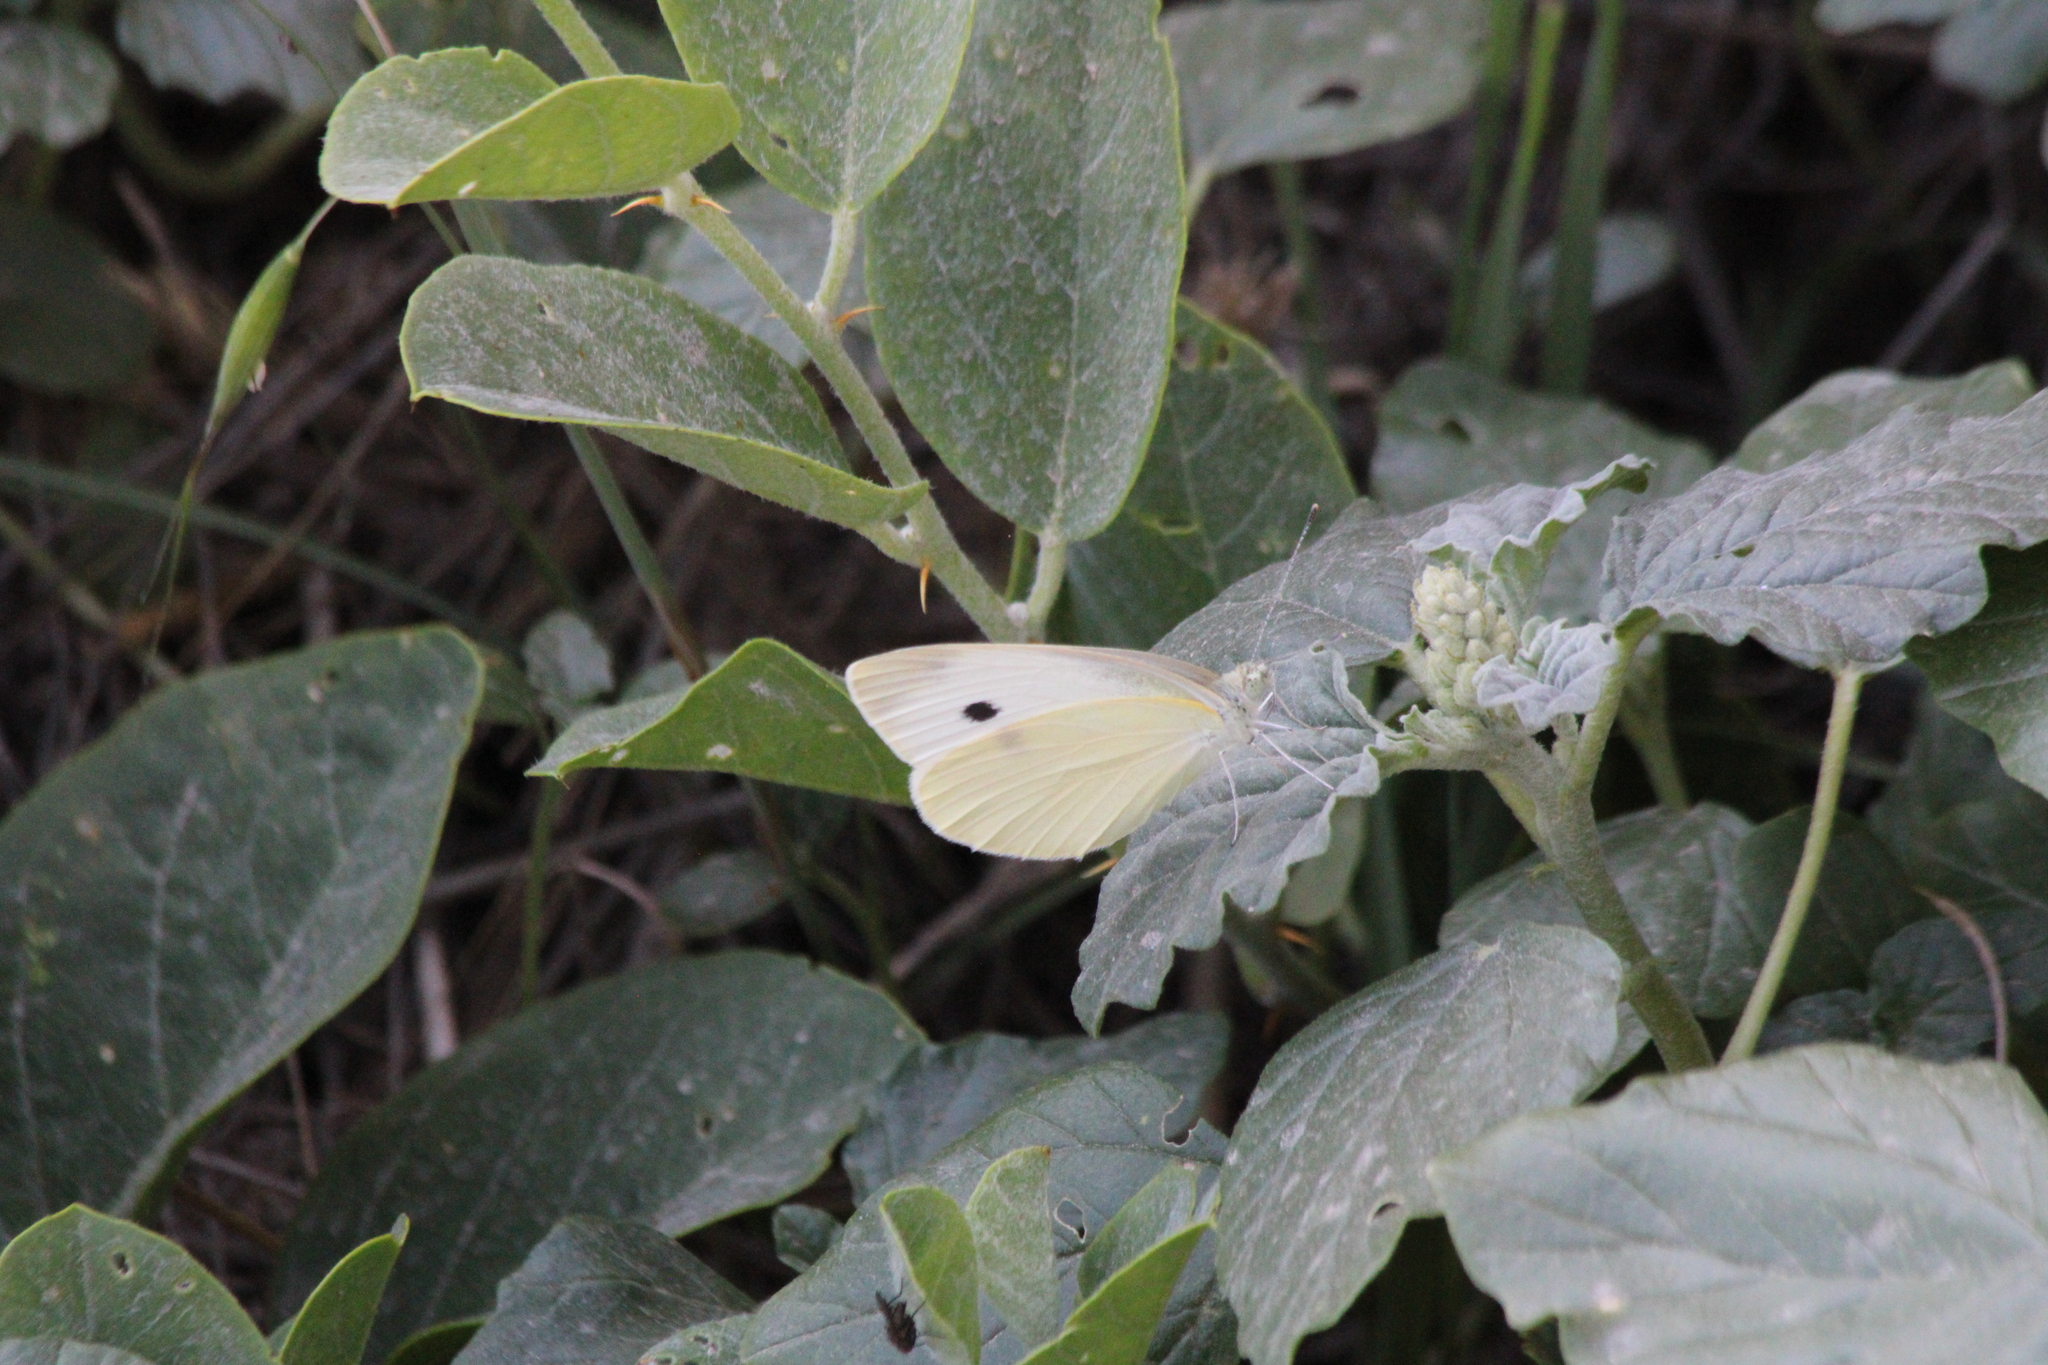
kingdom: Animalia
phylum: Arthropoda
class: Insecta
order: Lepidoptera
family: Pieridae
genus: Pieris
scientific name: Pieris rapae
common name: Small white
